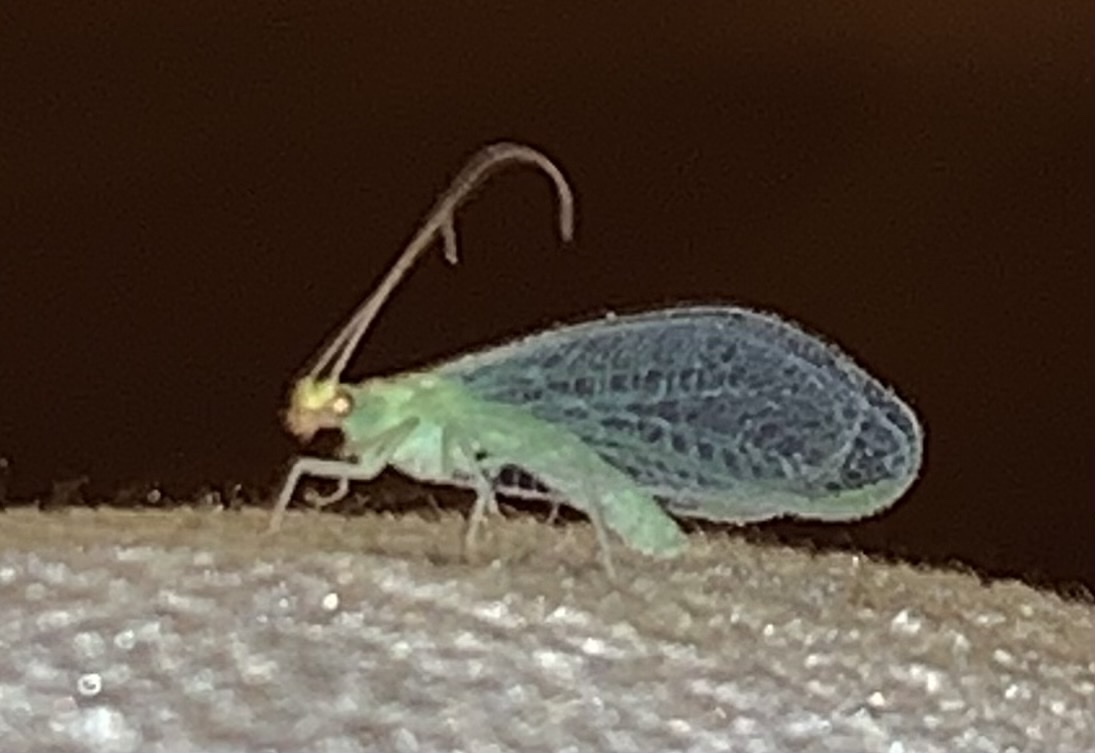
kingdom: Animalia
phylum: Arthropoda
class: Insecta
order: Neuroptera
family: Chrysopidae
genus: Chrysoperla
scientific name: Chrysoperla
